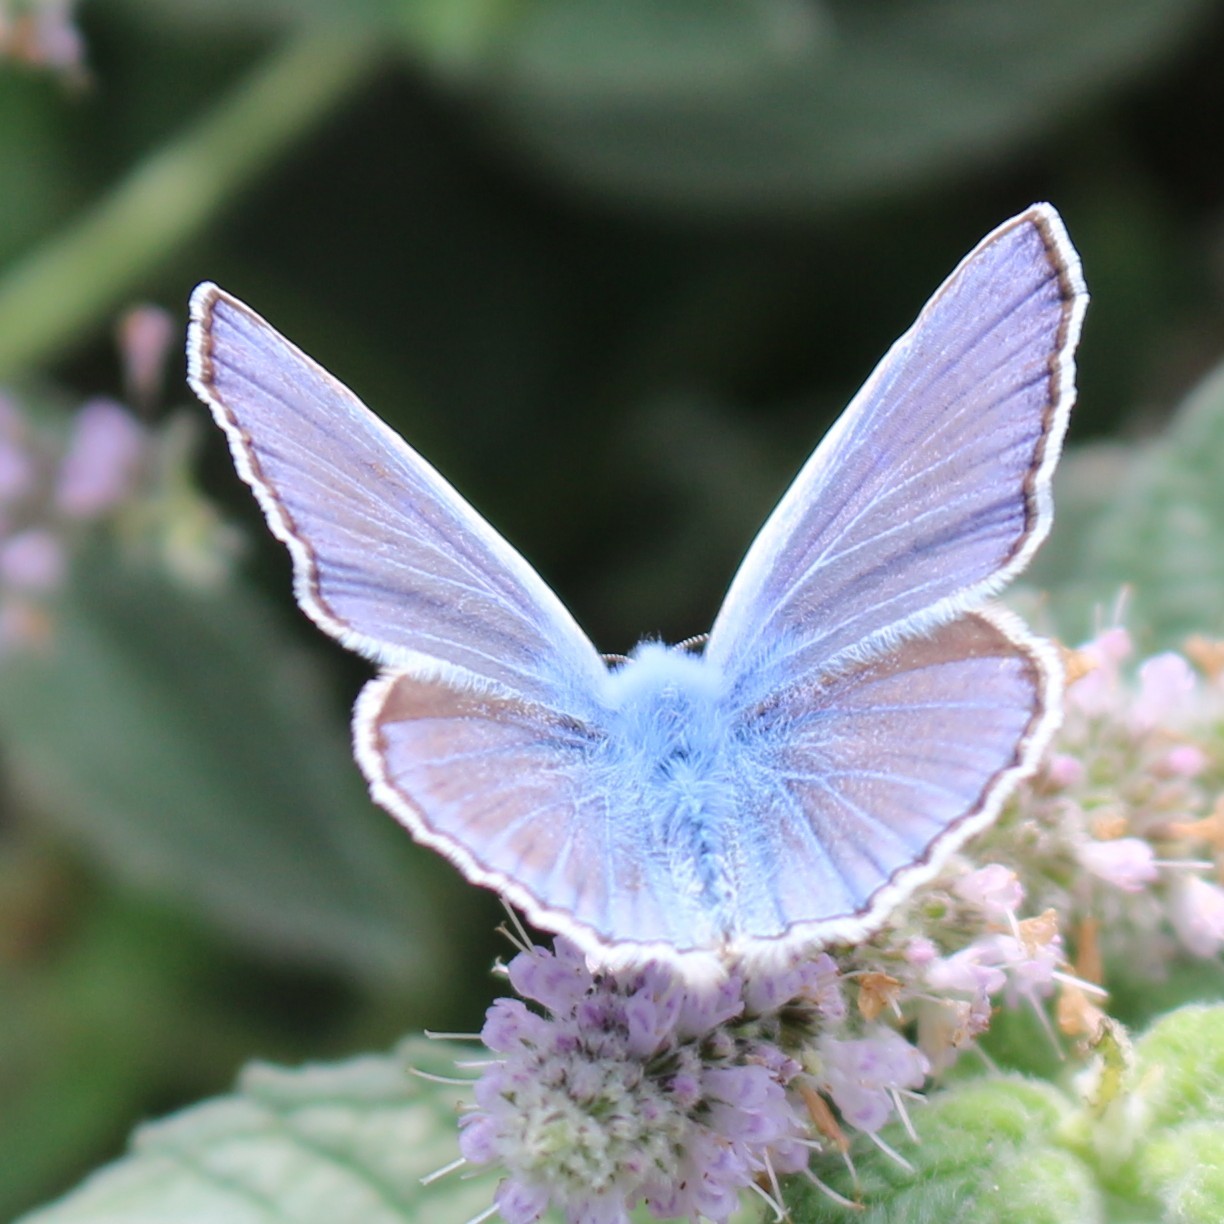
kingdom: Animalia
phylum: Arthropoda
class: Insecta
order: Lepidoptera
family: Lycaenidae
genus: Polyommatus
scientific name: Polyommatus icarus
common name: Common blue
